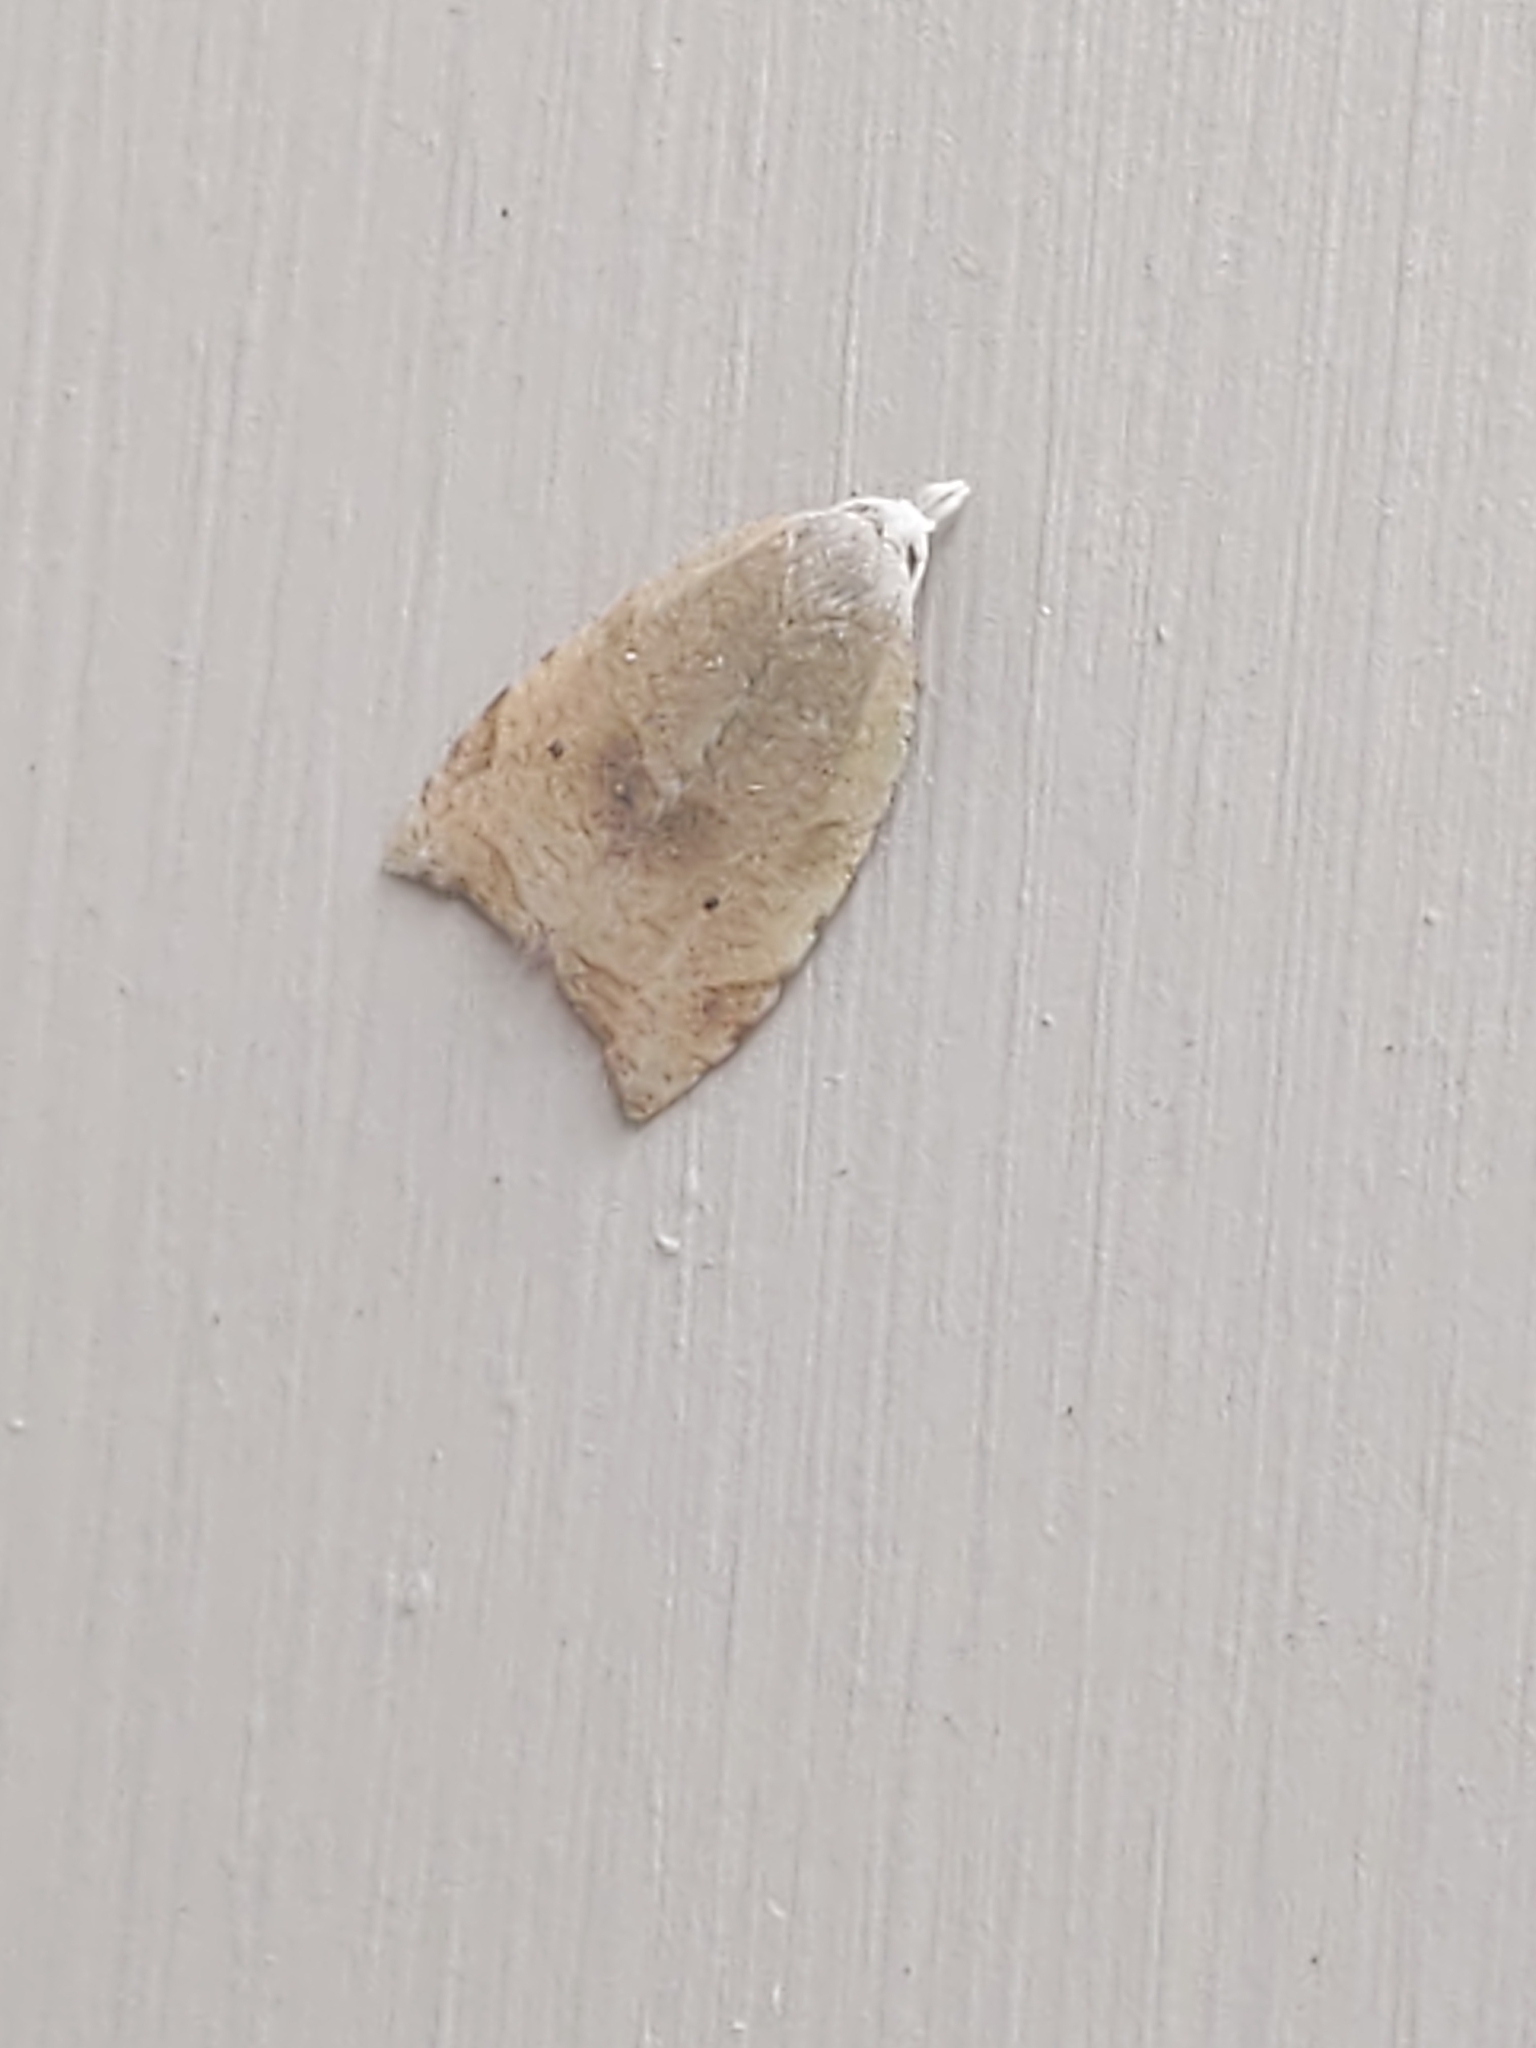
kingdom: Animalia
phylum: Arthropoda
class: Insecta
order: Lepidoptera
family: Tortricidae
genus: Coelostathma
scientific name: Coelostathma discopunctana
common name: Batman moth
